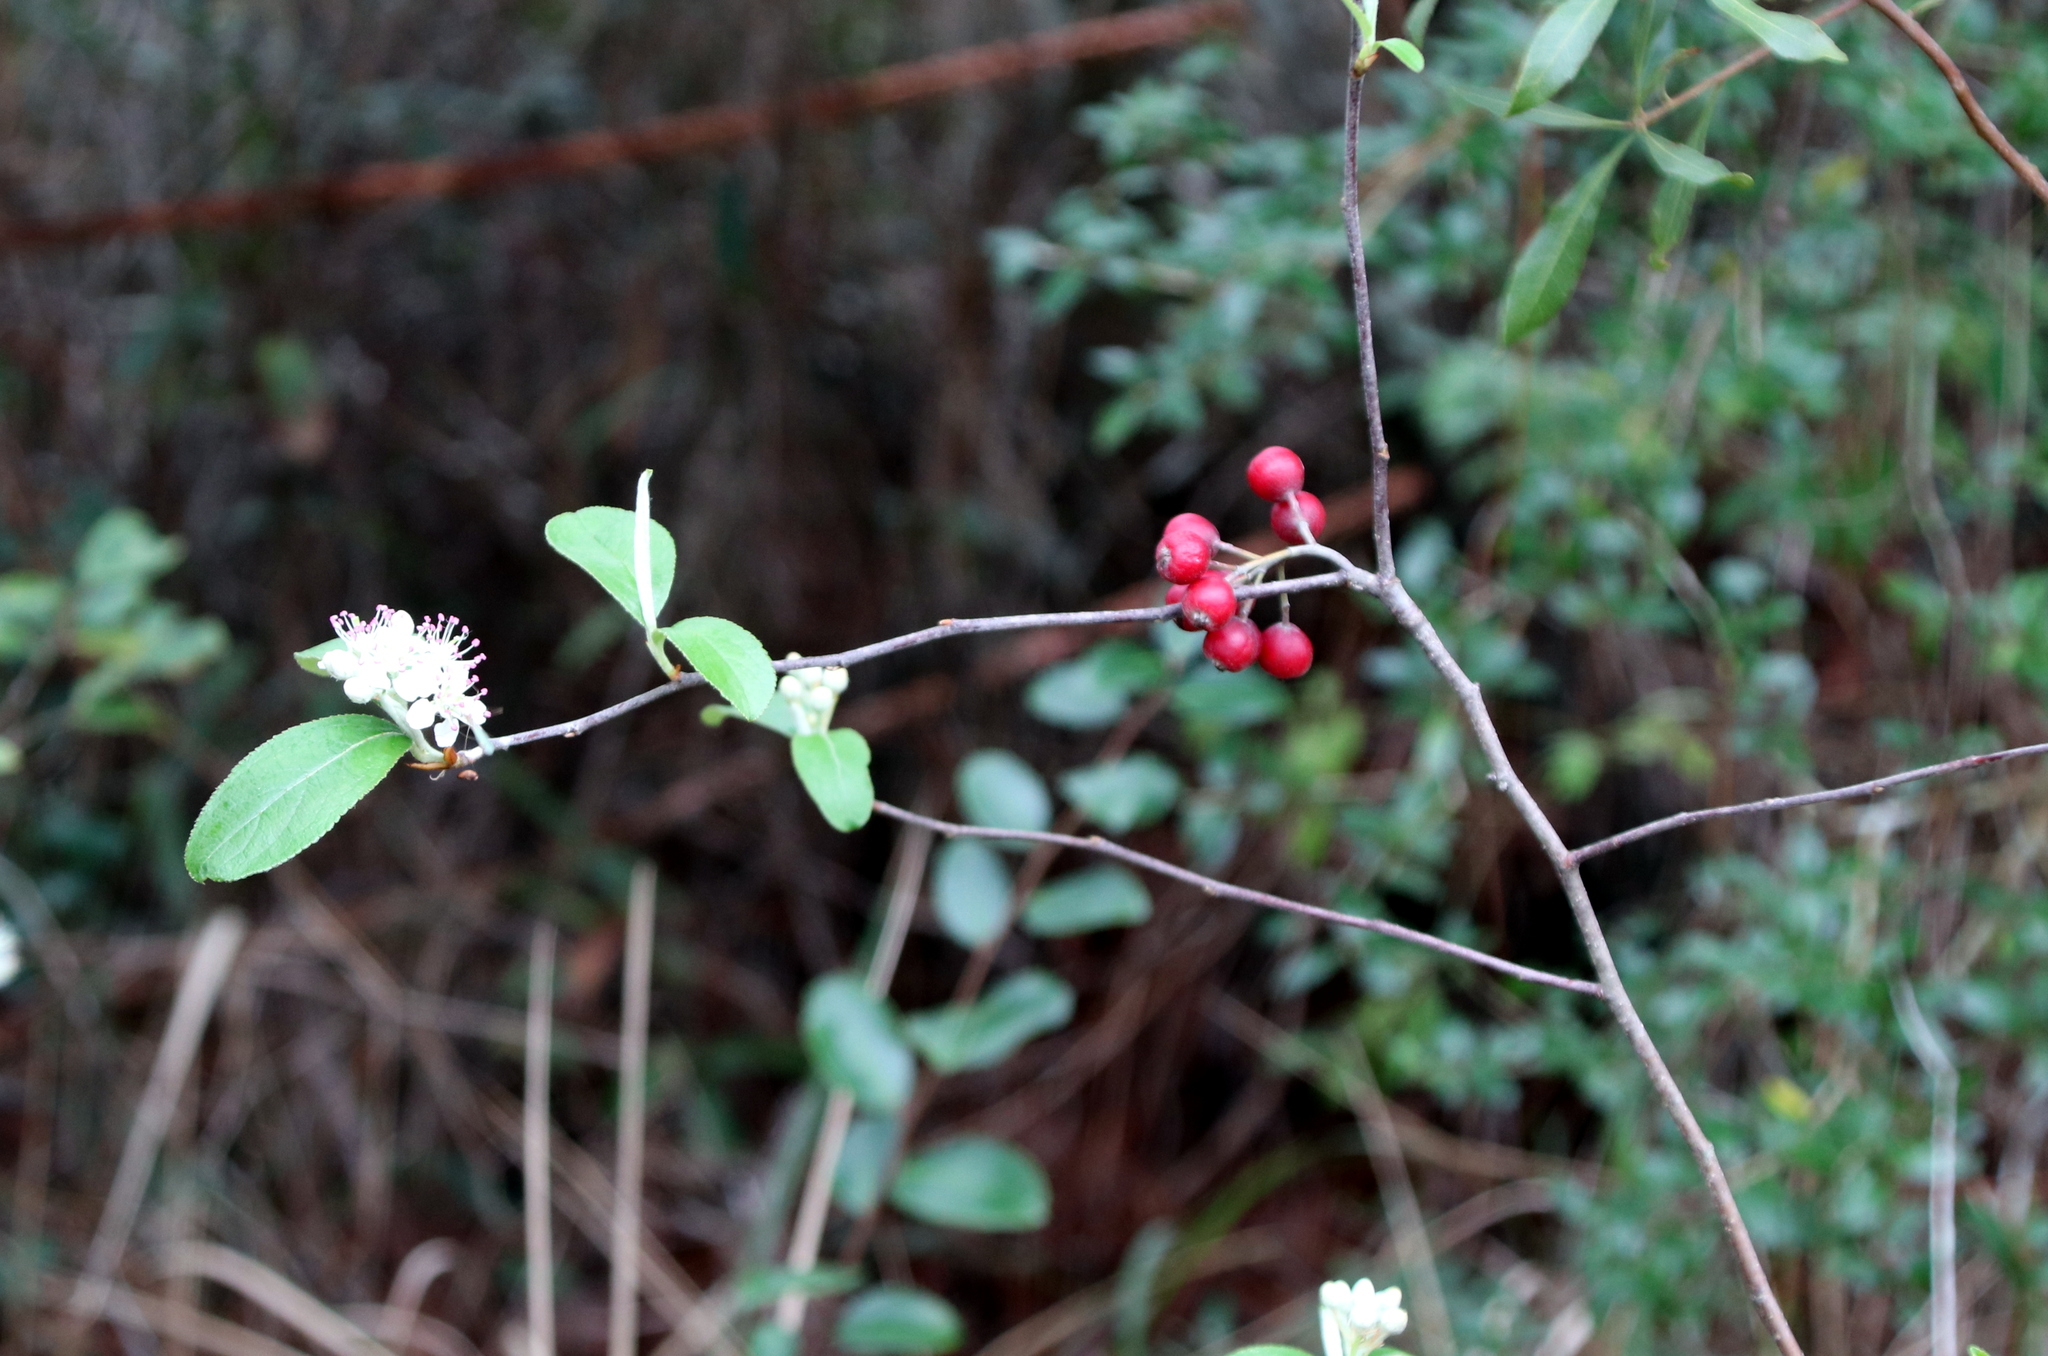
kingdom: Plantae
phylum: Tracheophyta
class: Magnoliopsida
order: Rosales
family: Rosaceae
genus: Aronia
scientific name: Aronia arbutifolia
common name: Red chokeberry
